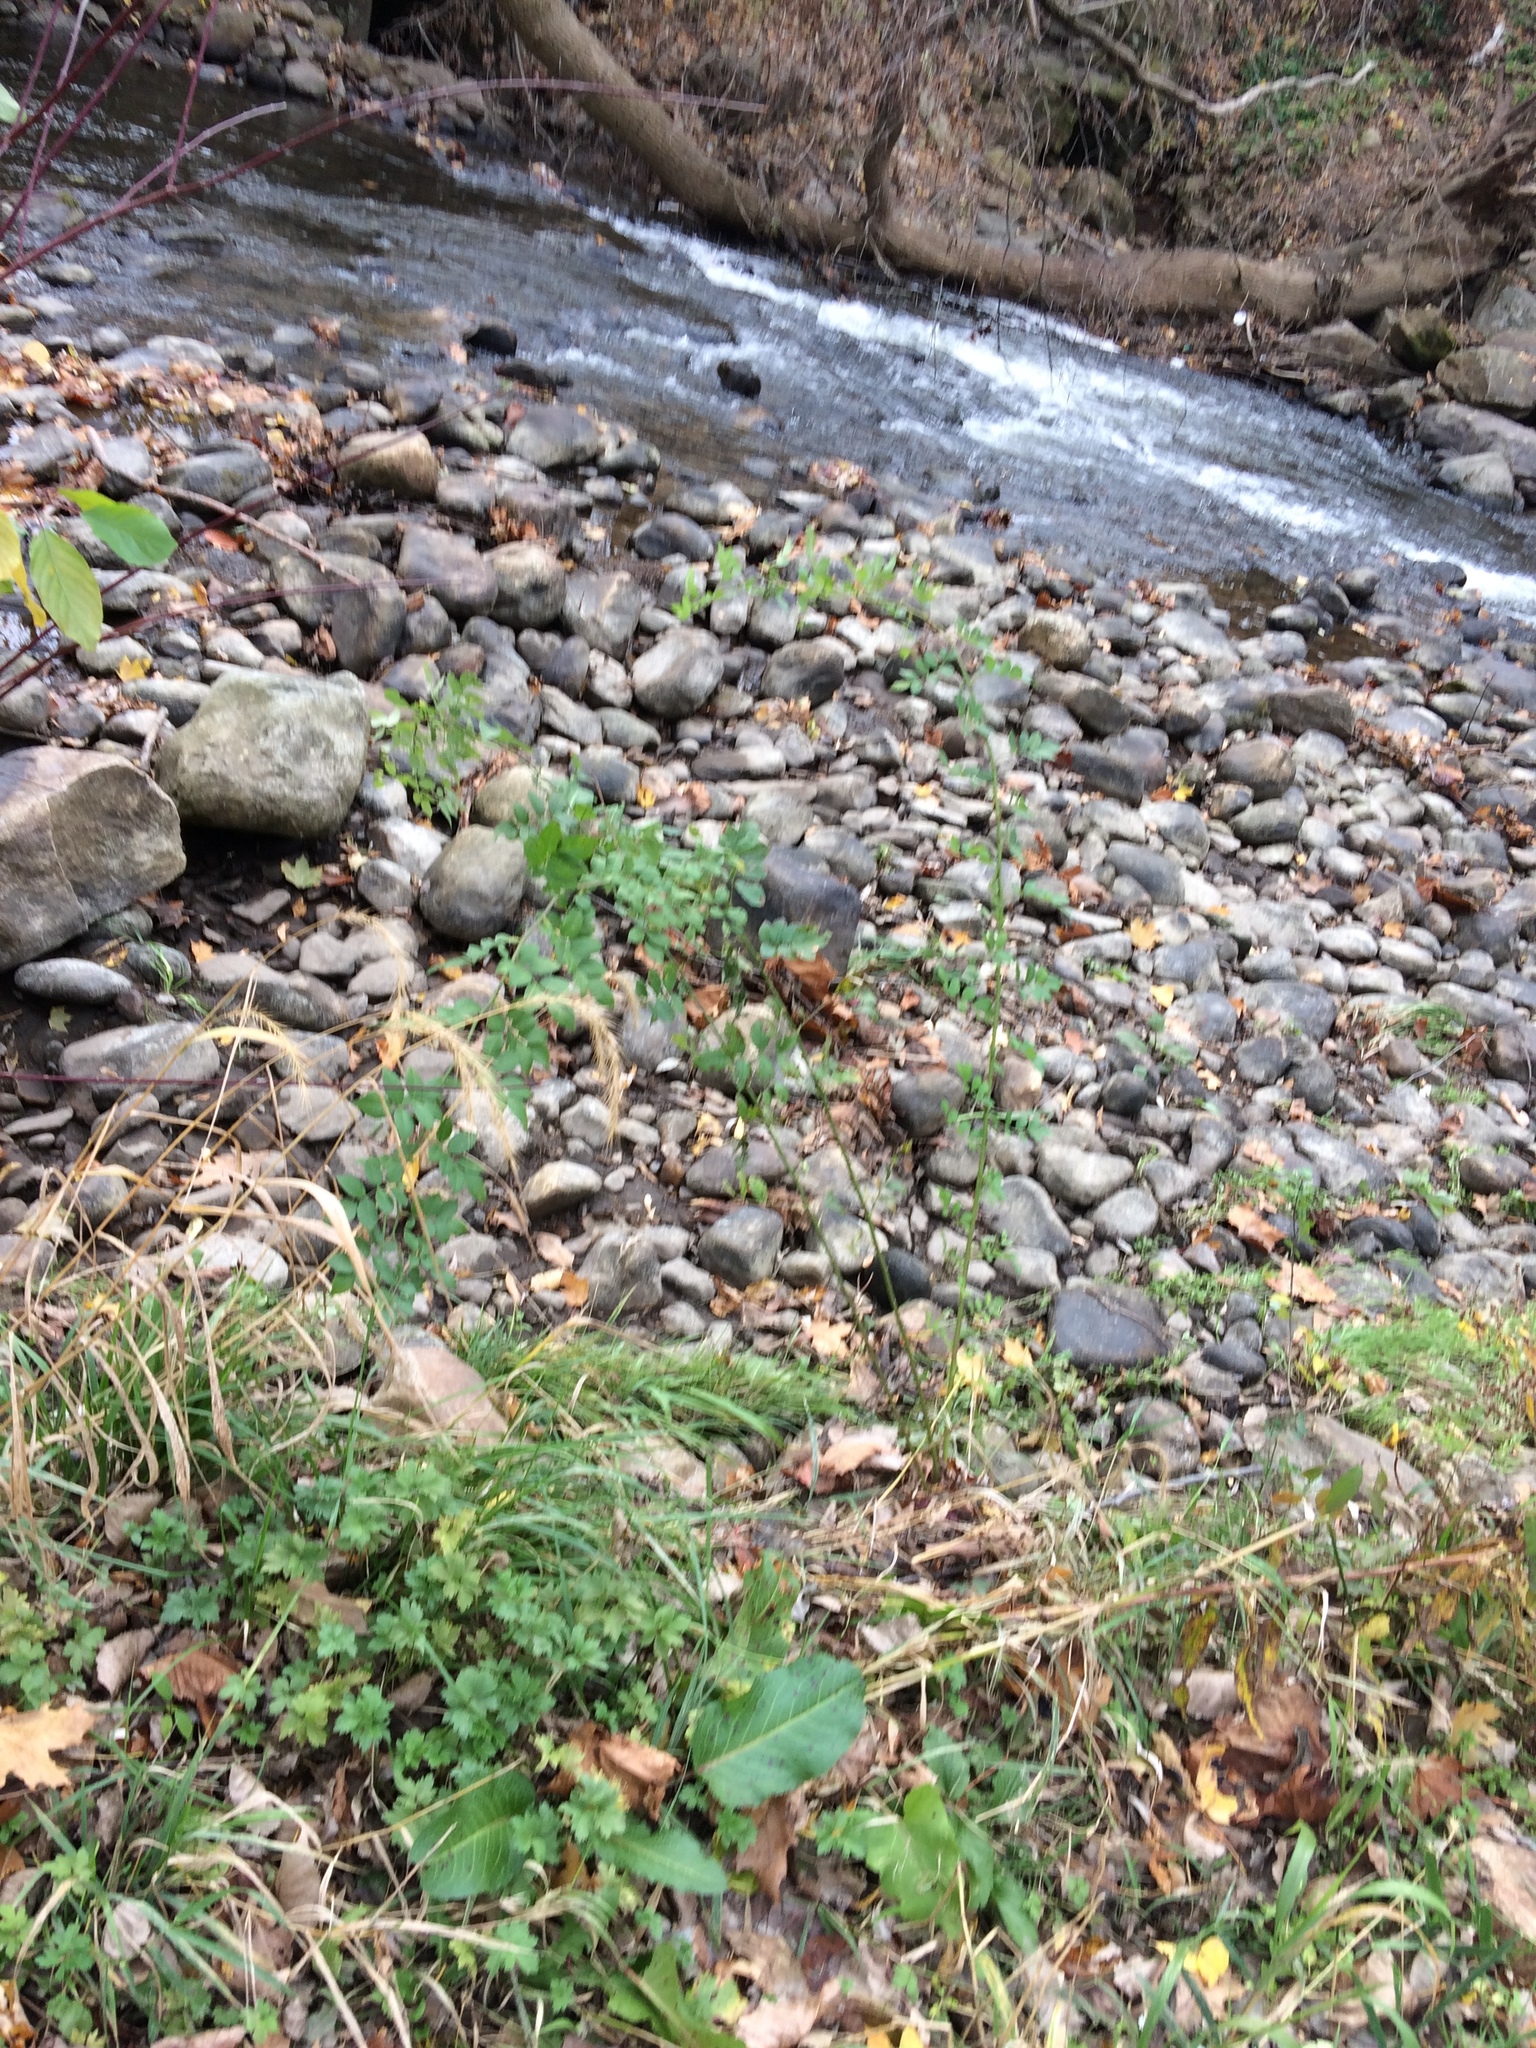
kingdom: Plantae
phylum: Tracheophyta
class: Magnoliopsida
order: Rosales
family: Rosaceae
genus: Rosa
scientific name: Rosa multiflora
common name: Multiflora rose
